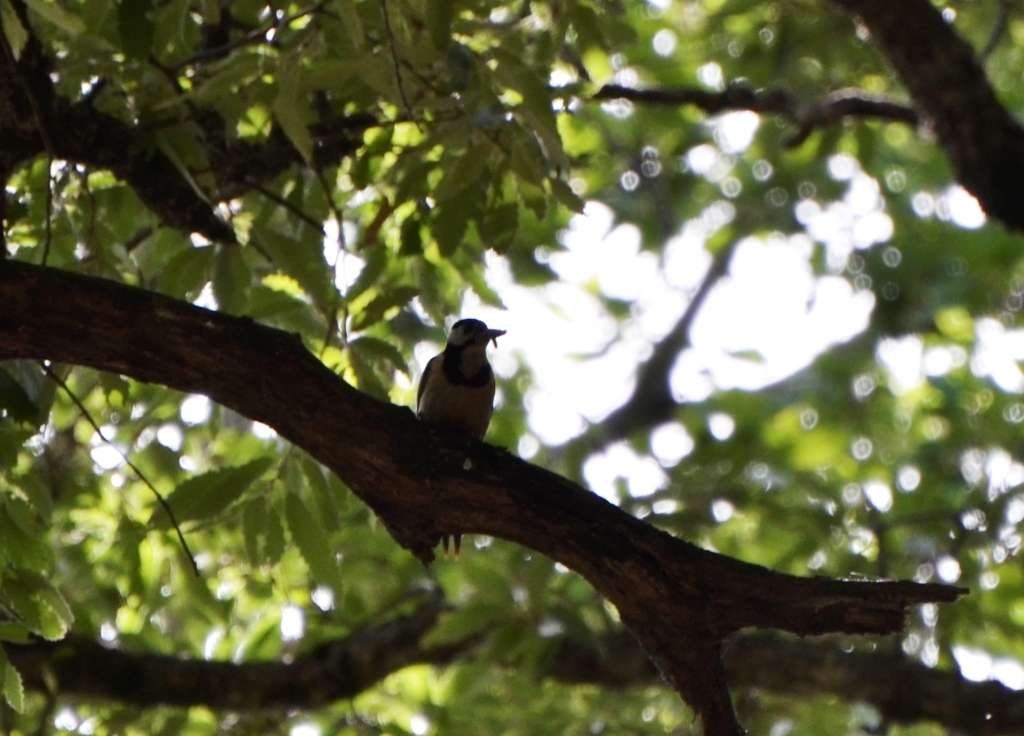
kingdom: Animalia
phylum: Chordata
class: Aves
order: Piciformes
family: Picidae
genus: Dendrocopos
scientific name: Dendrocopos major
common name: Great spotted woodpecker
